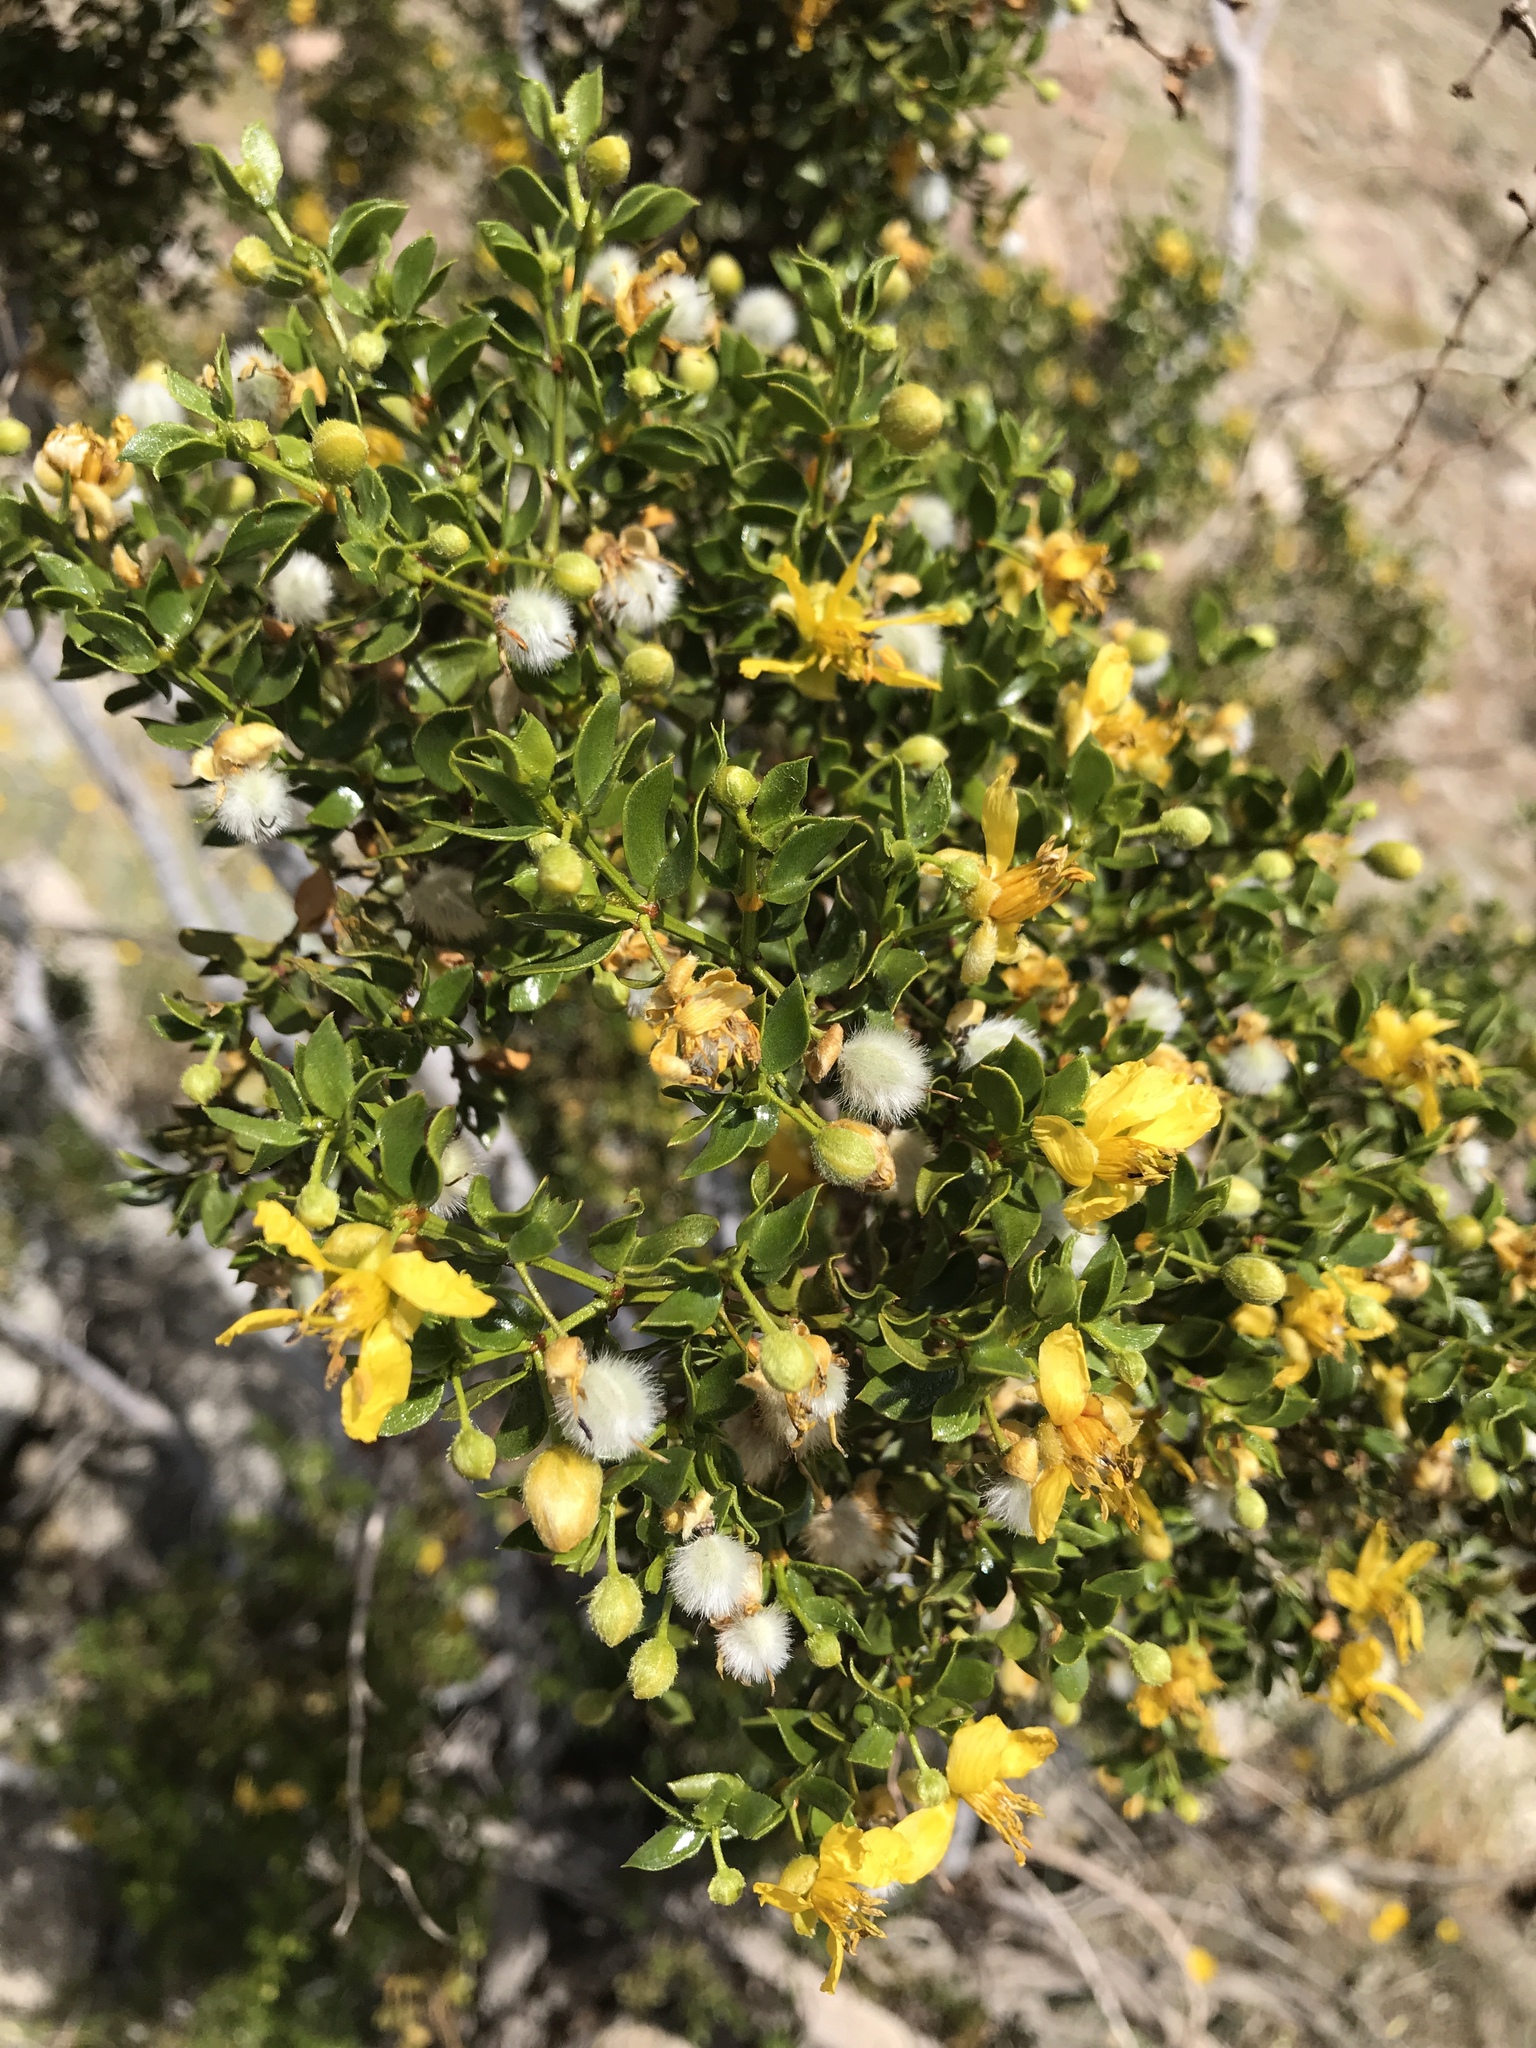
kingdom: Plantae
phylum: Tracheophyta
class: Magnoliopsida
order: Zygophyllales
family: Zygophyllaceae
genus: Larrea
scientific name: Larrea tridentata
